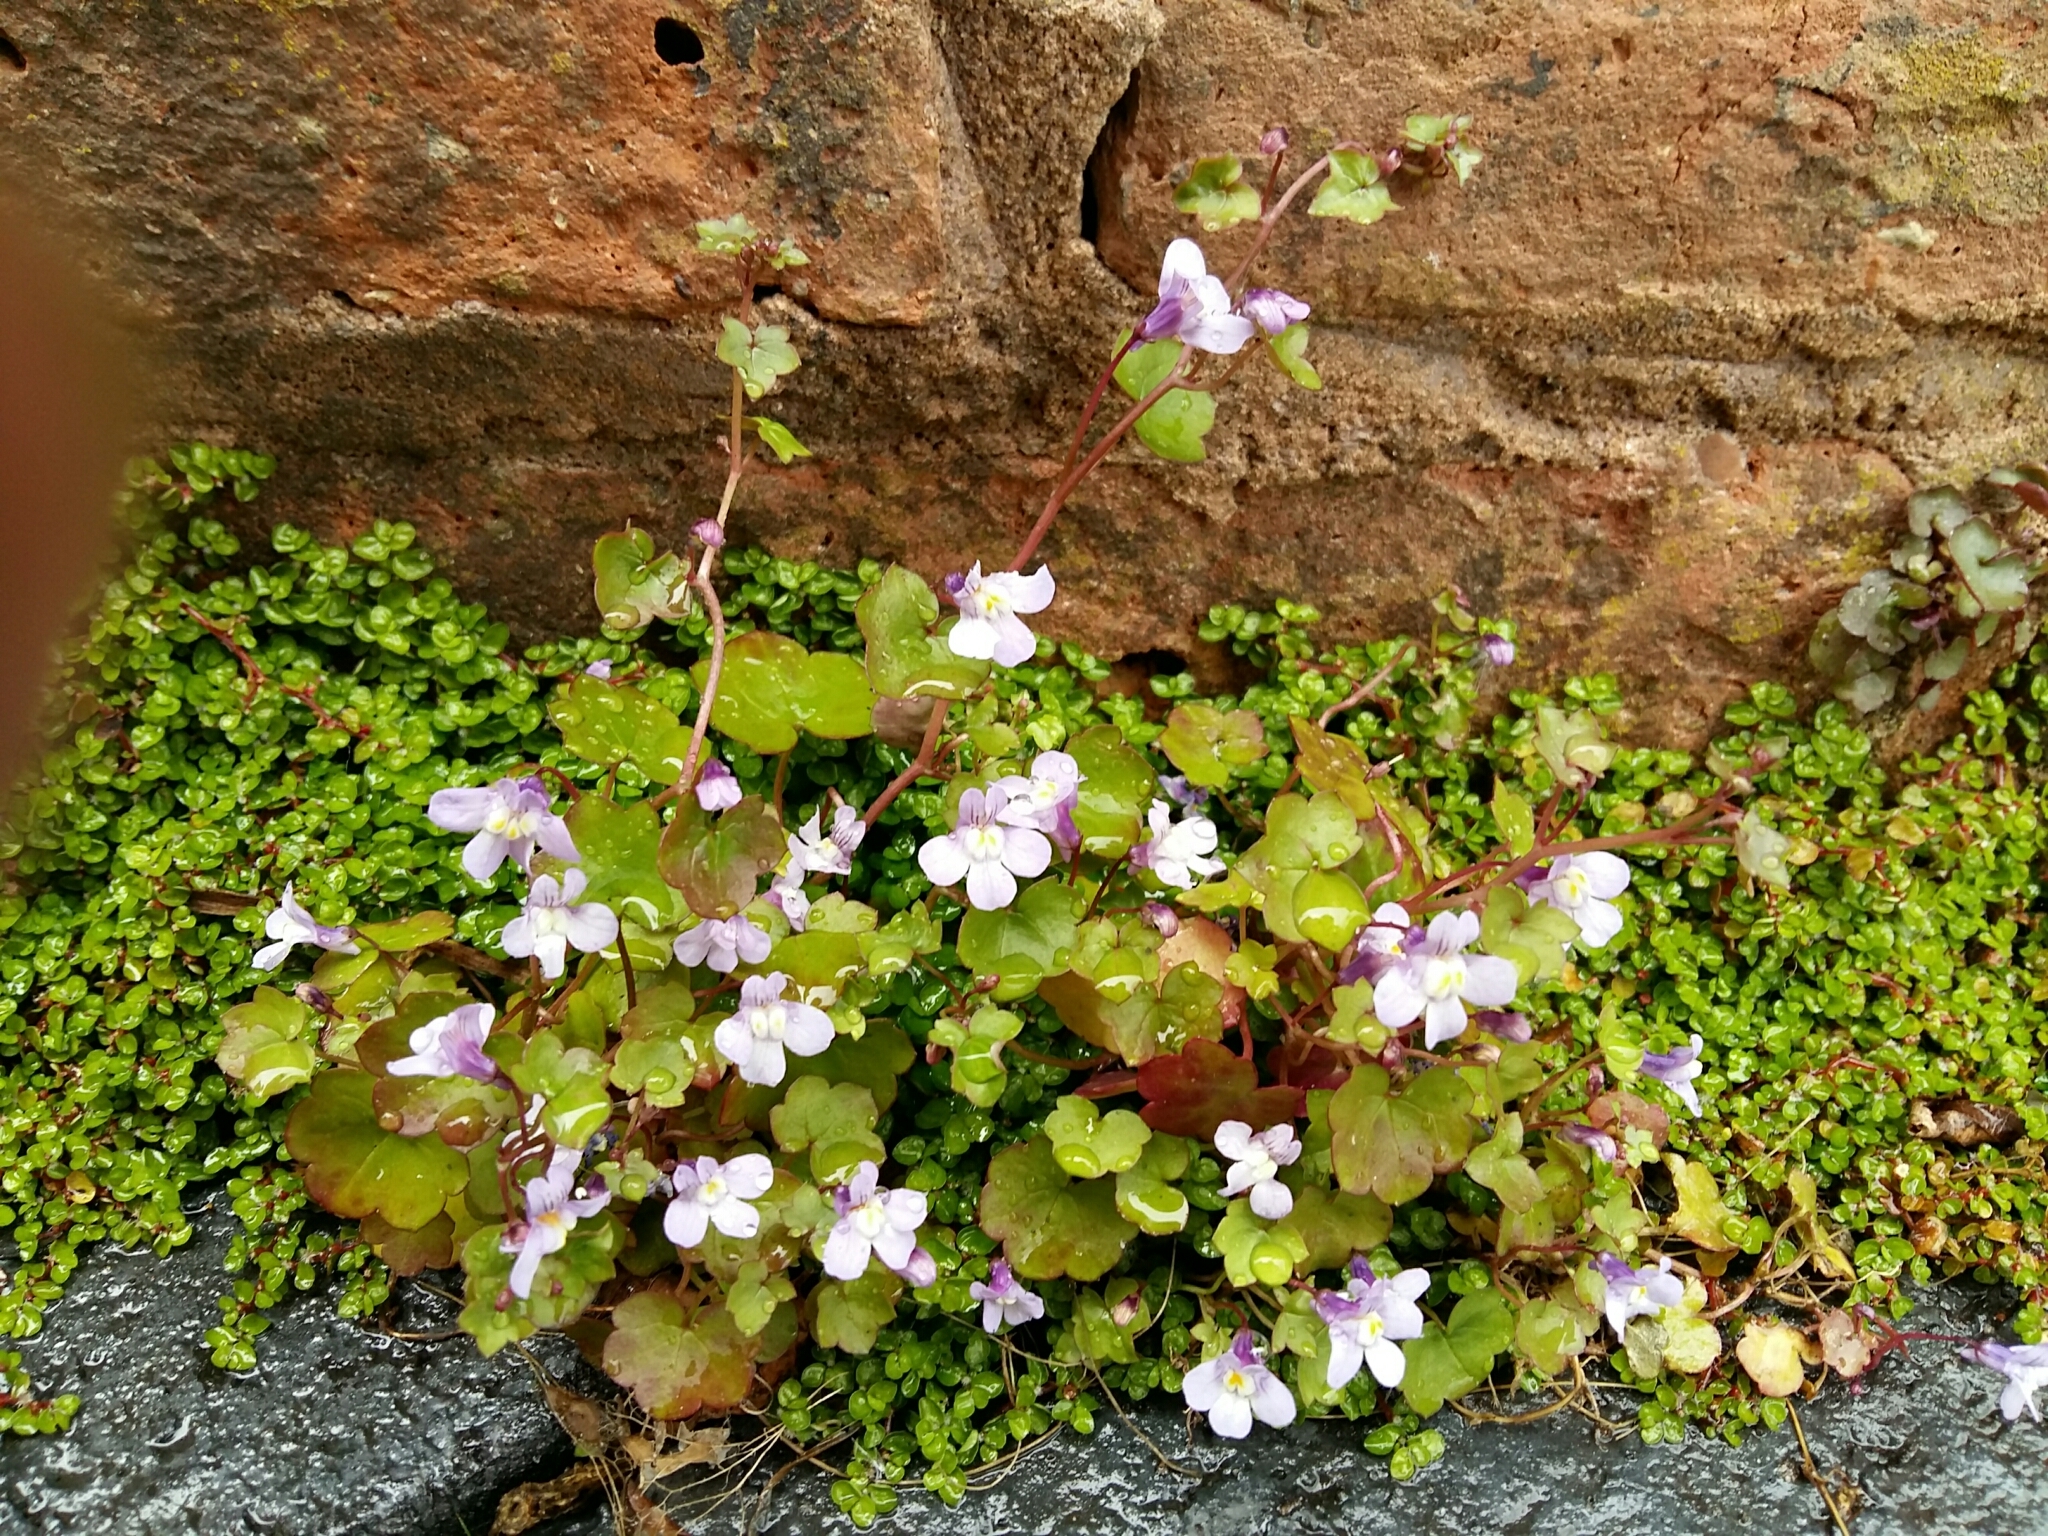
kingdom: Plantae
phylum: Tracheophyta
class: Magnoliopsida
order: Lamiales
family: Plantaginaceae
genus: Cymbalaria
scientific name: Cymbalaria muralis
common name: Ivy-leaved toadflax
